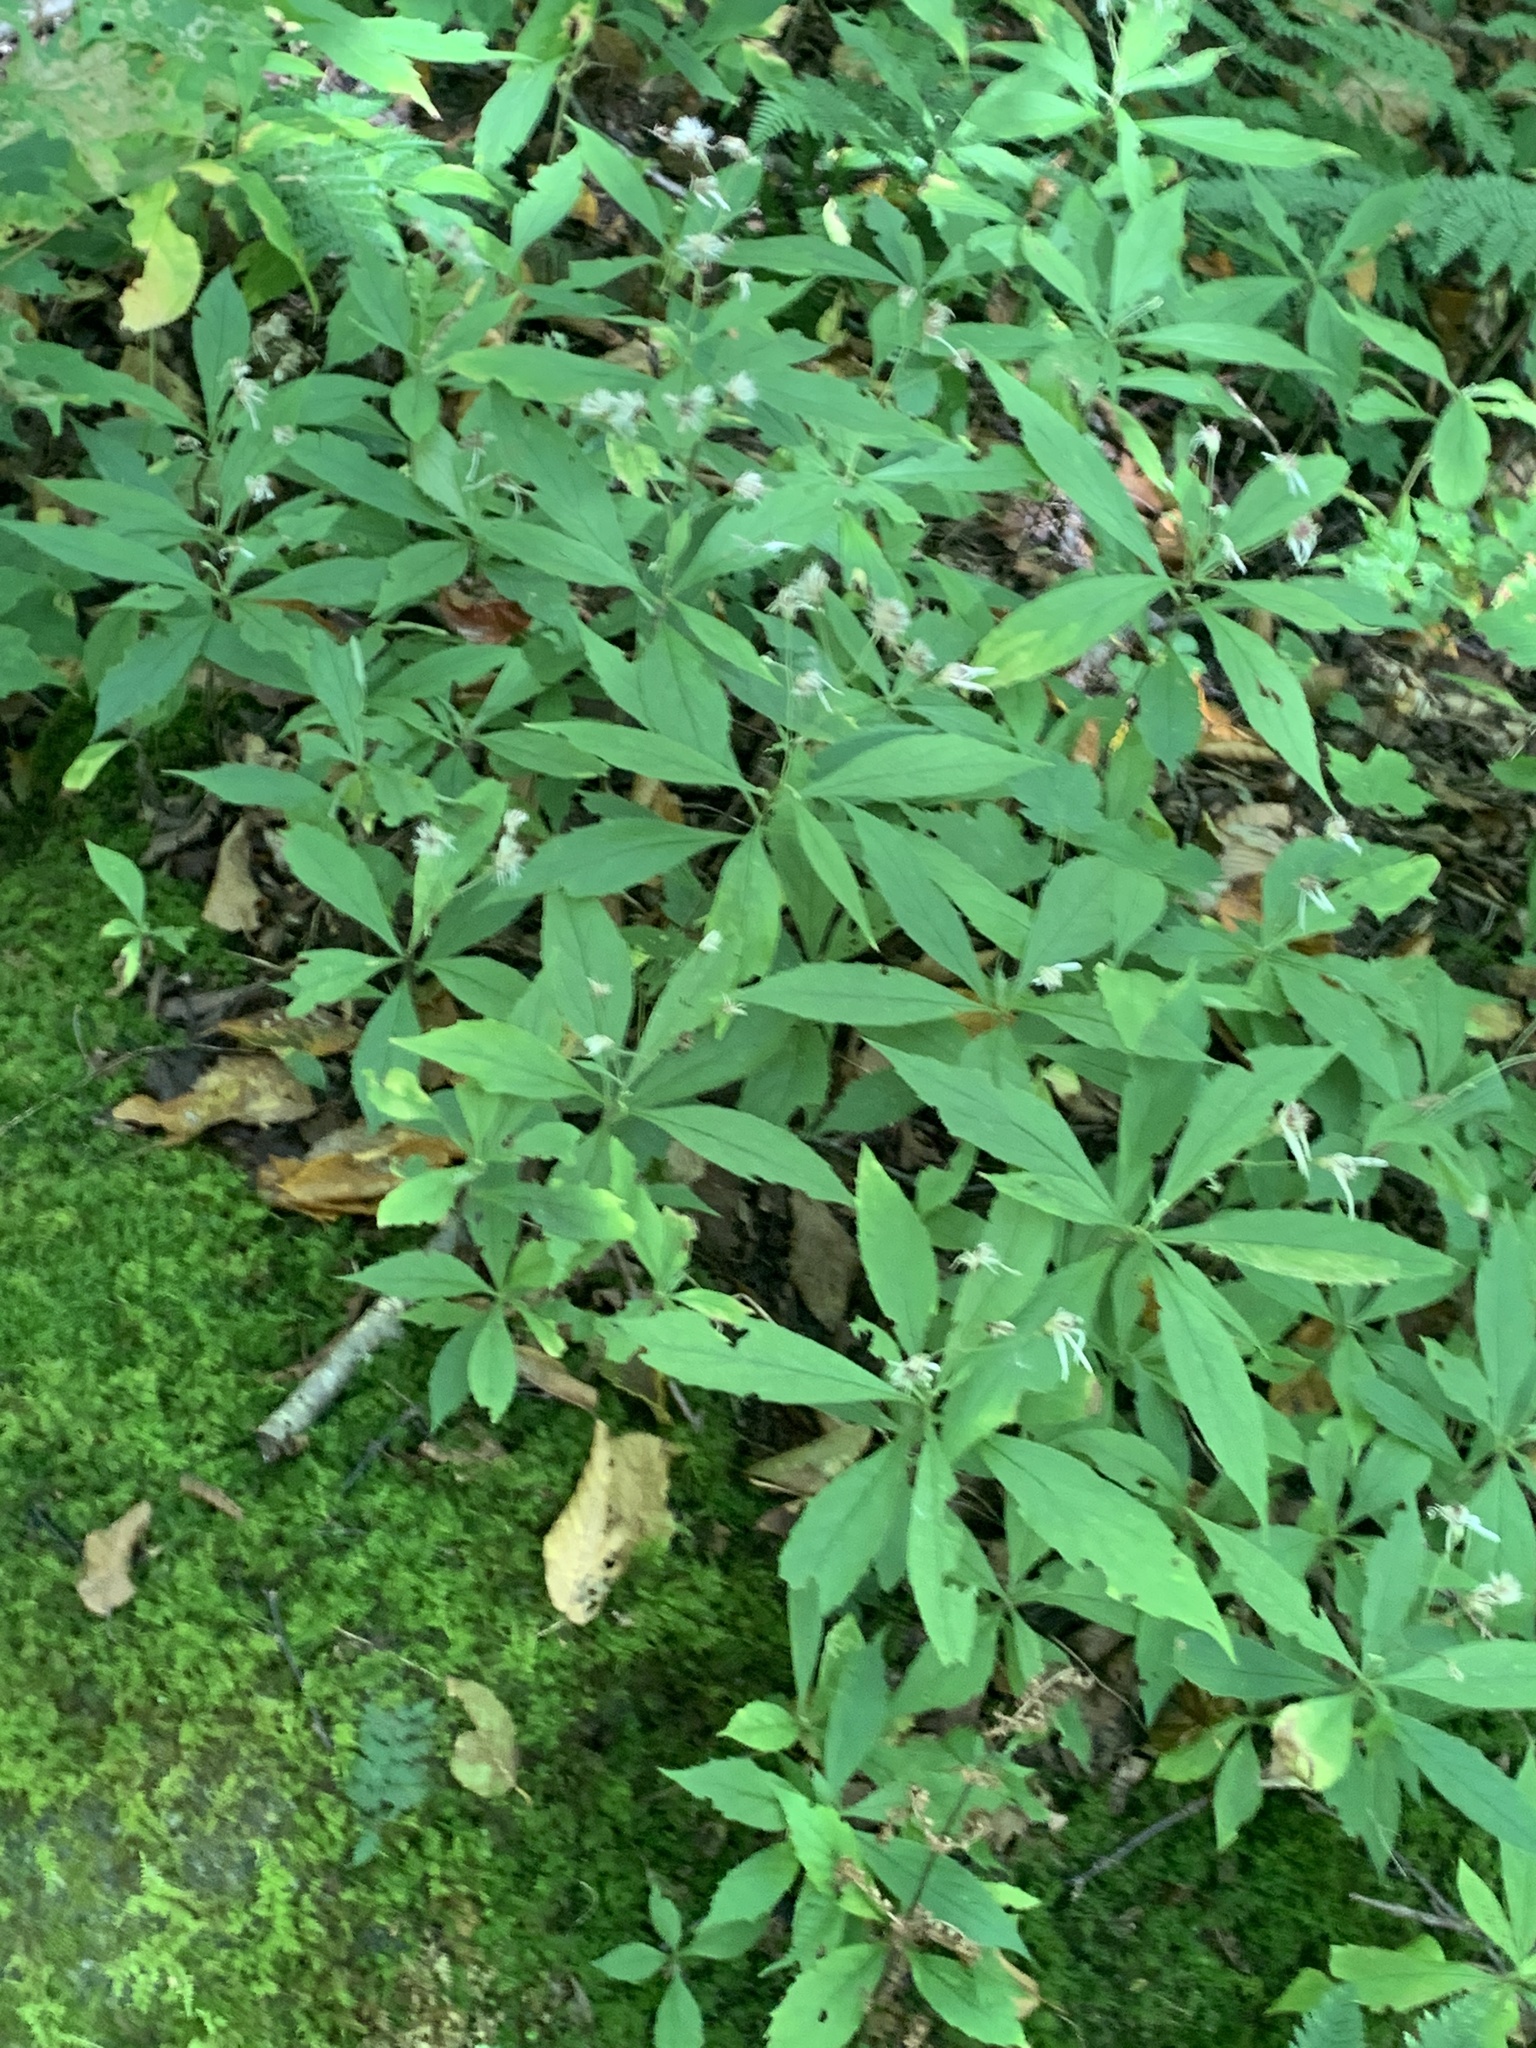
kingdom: Plantae
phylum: Tracheophyta
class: Magnoliopsida
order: Asterales
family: Asteraceae
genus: Oclemena
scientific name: Oclemena acuminata
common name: Mountain aster
